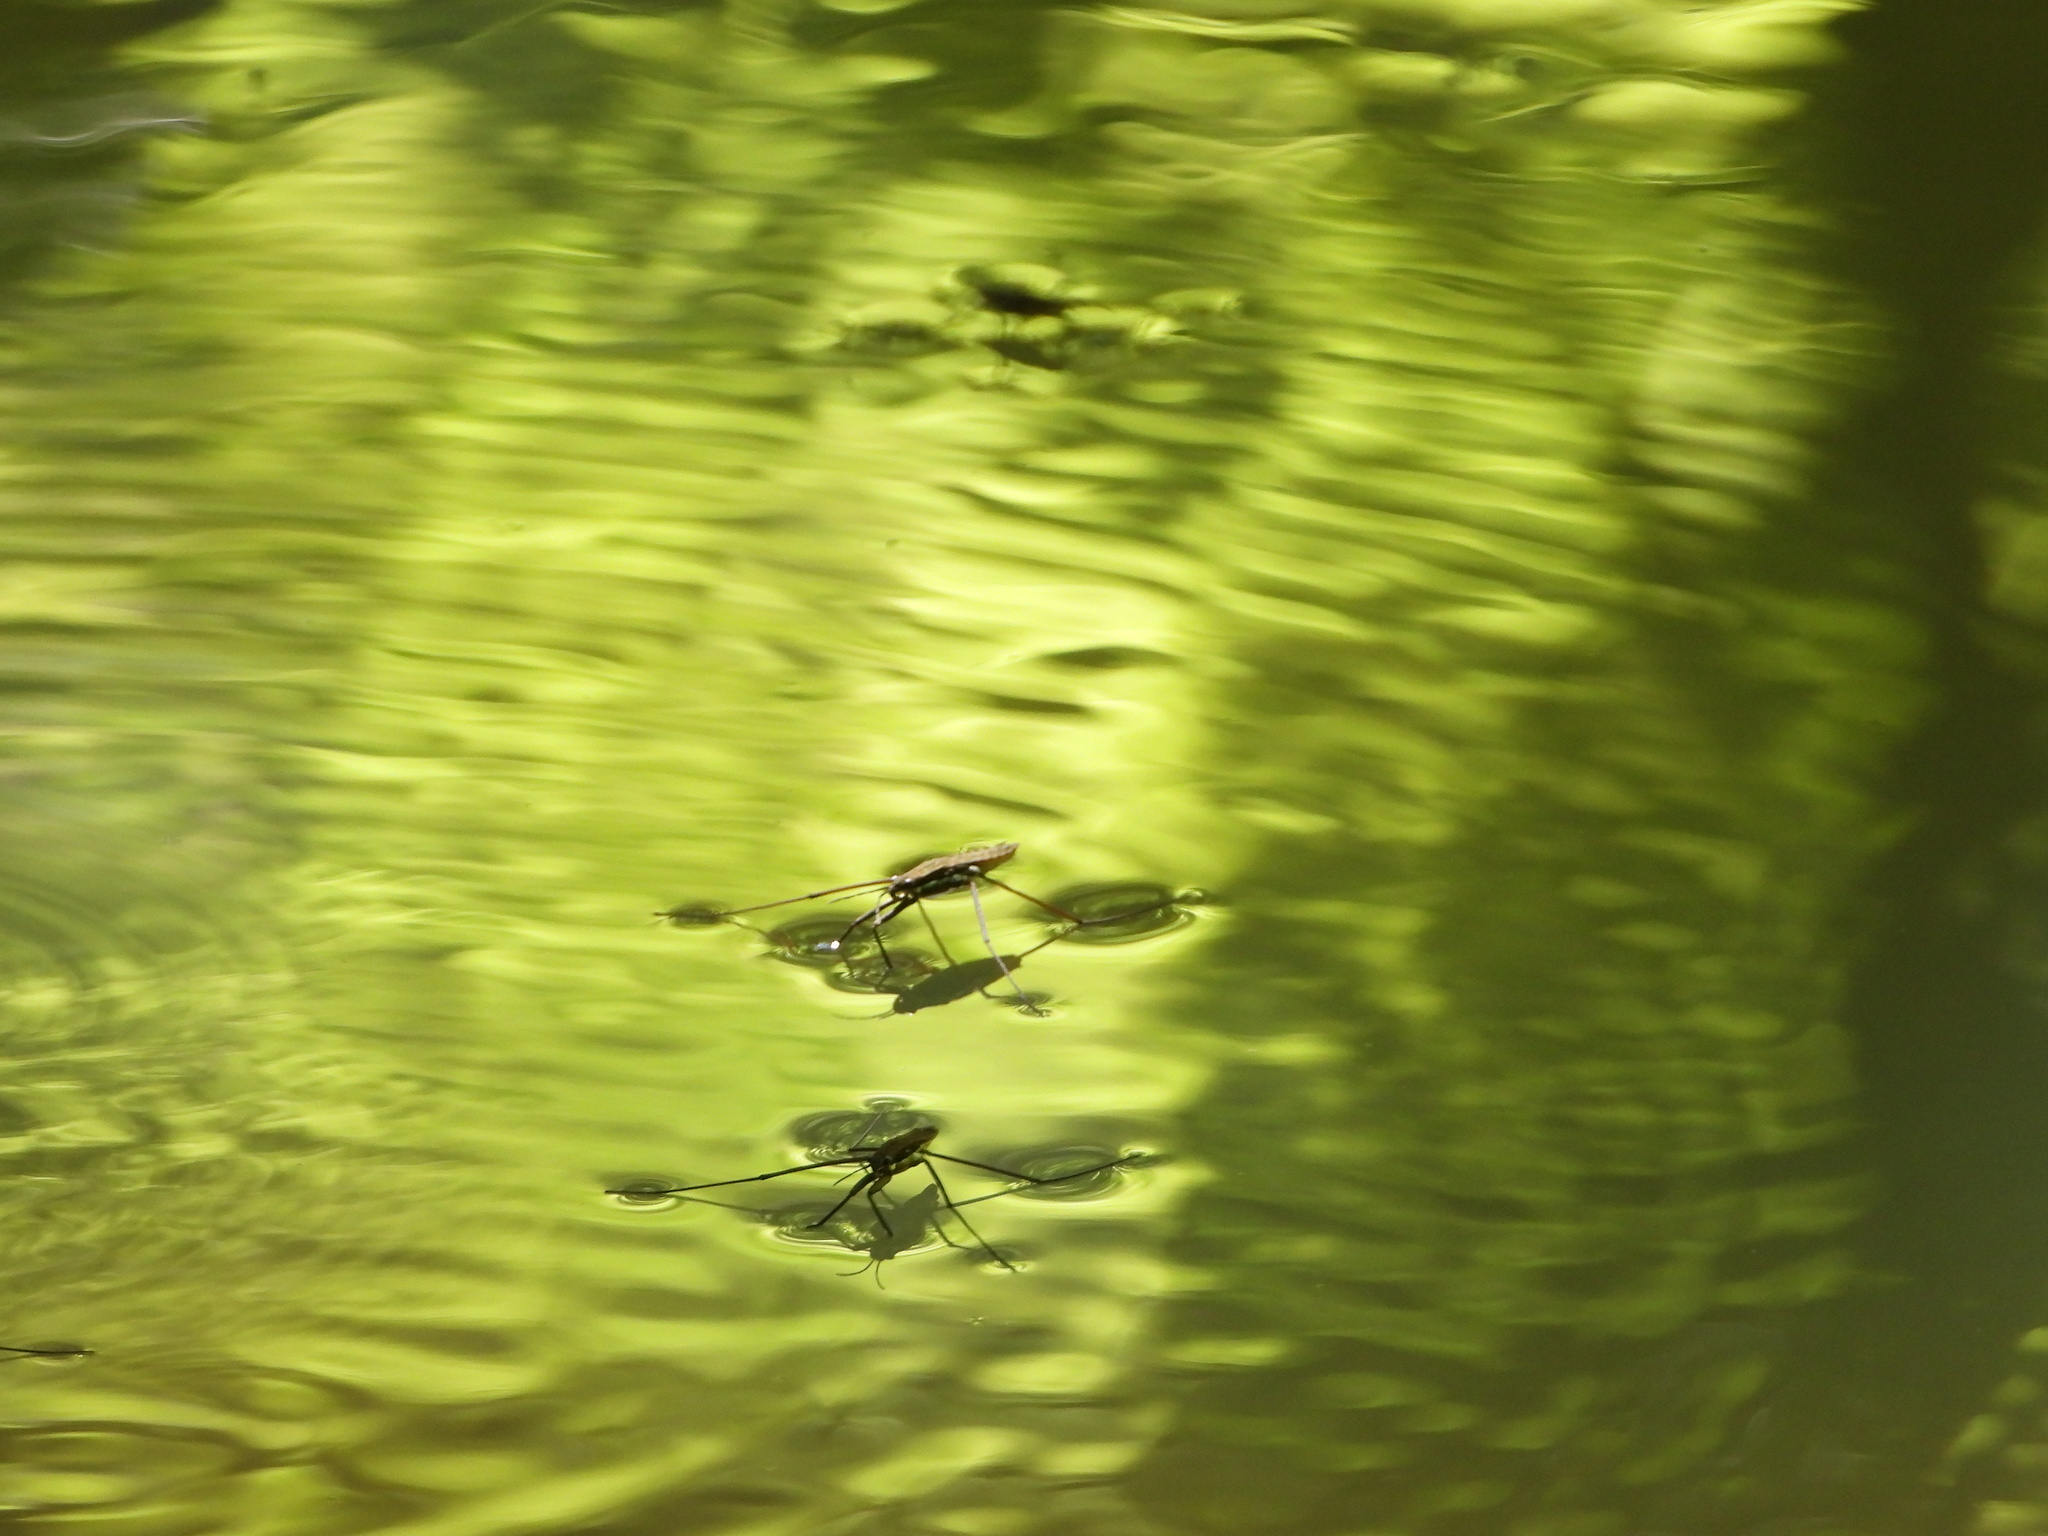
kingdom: Animalia
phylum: Arthropoda
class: Insecta
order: Hemiptera
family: Gerridae
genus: Aquarius
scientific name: Aquarius remigis
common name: Common water strider
